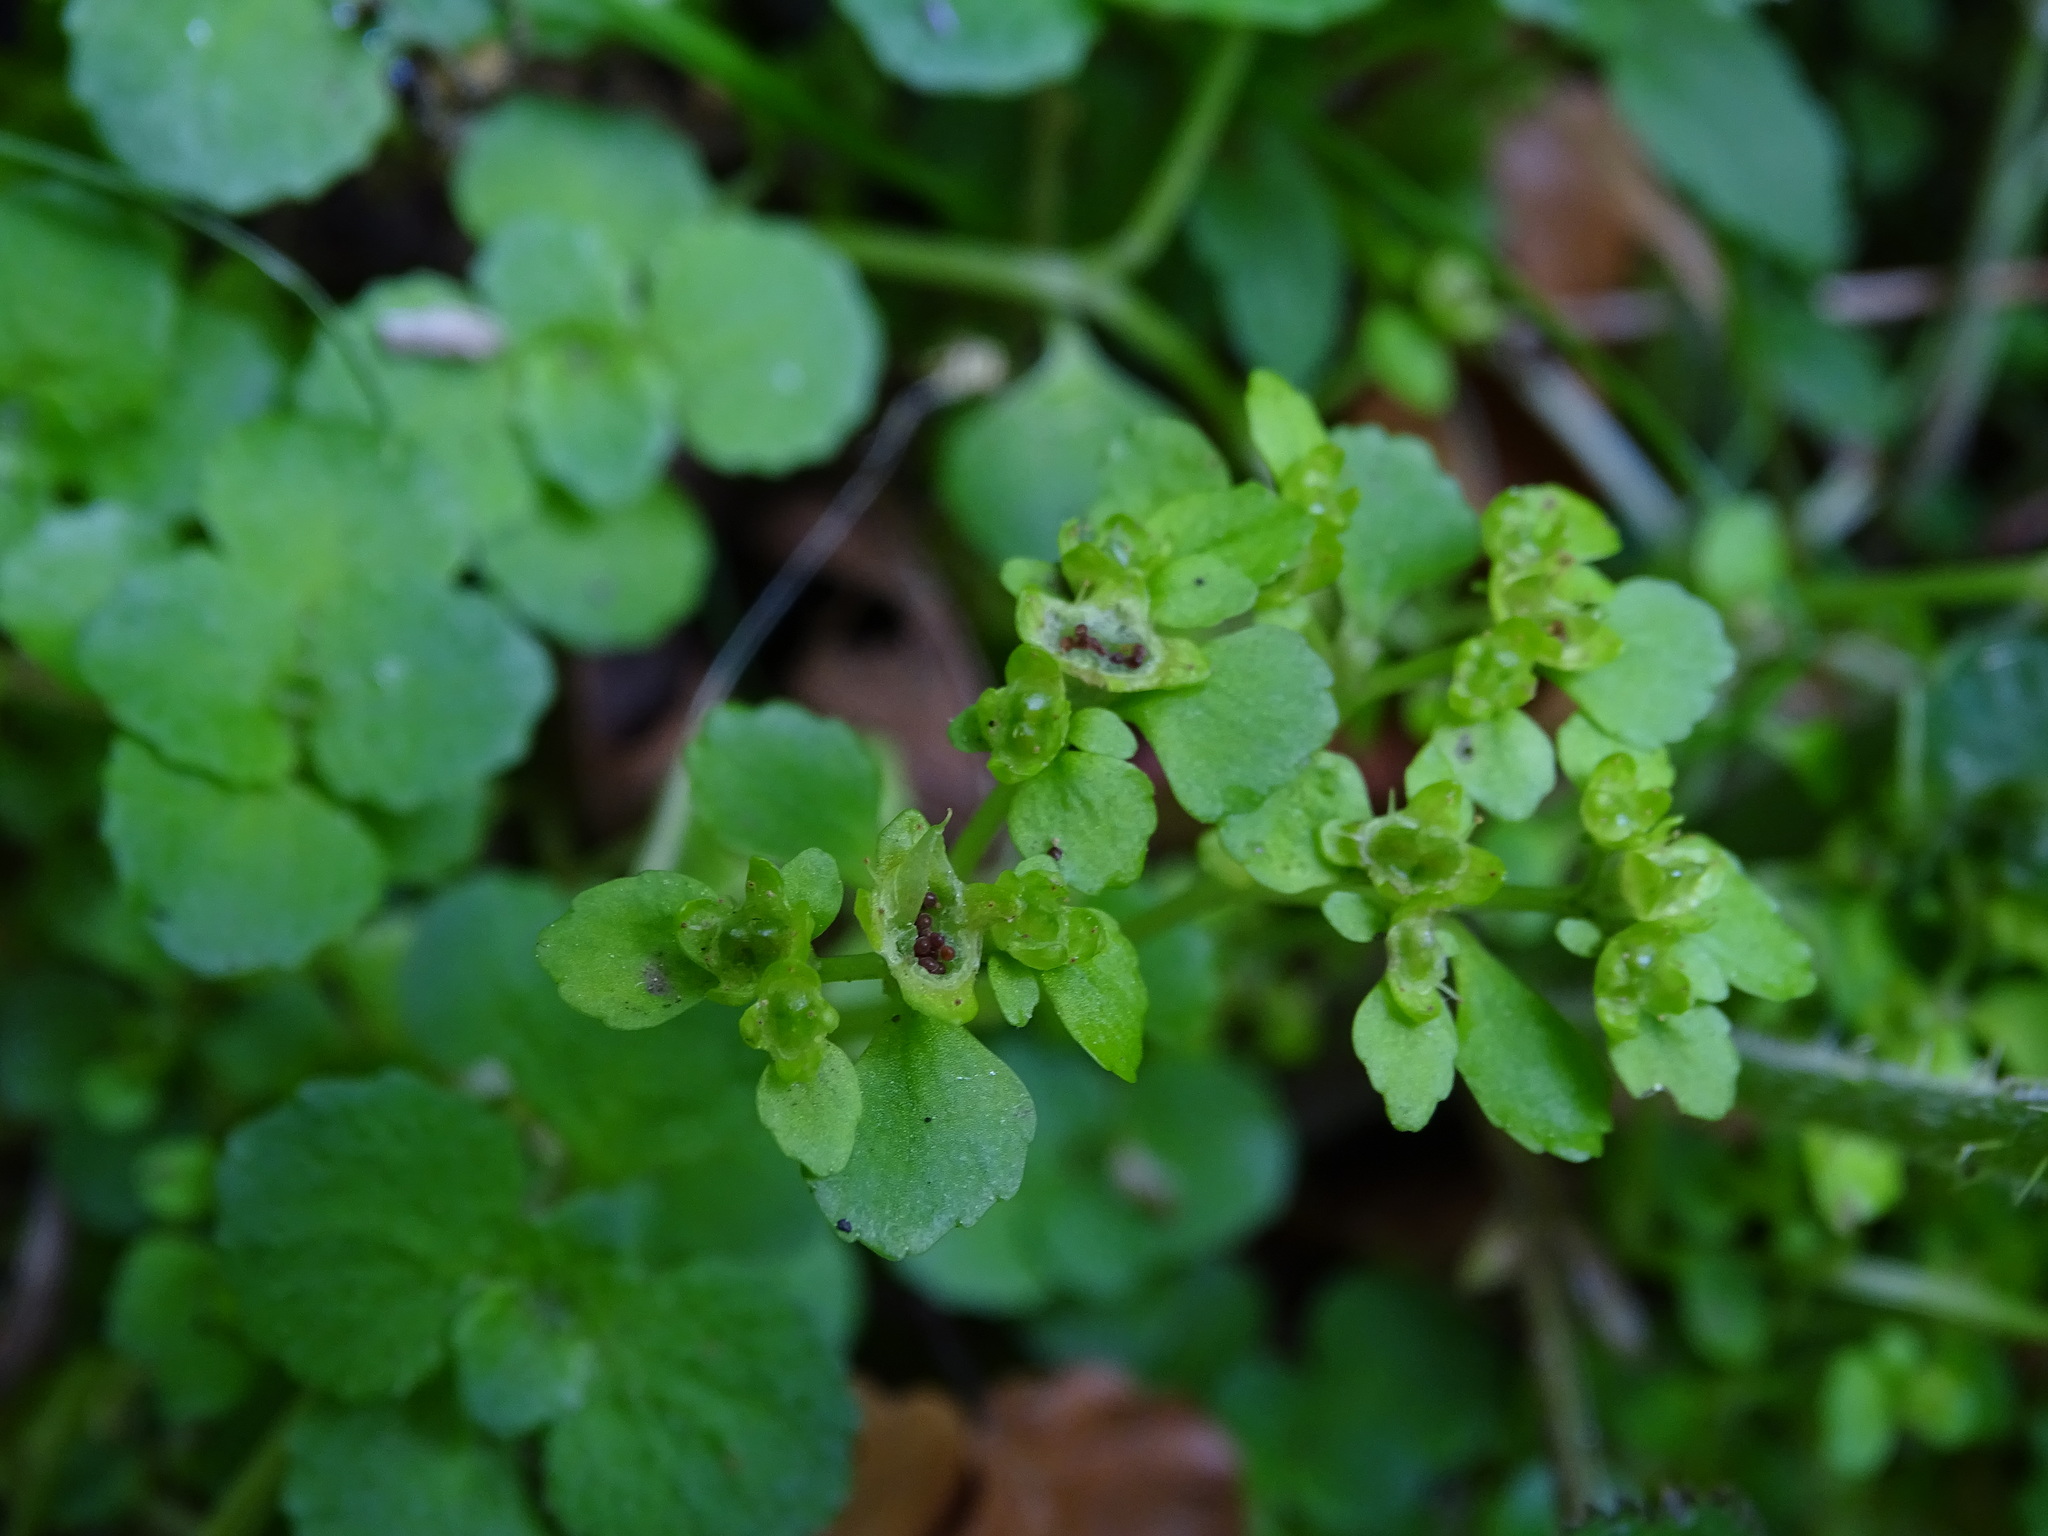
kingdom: Plantae
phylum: Tracheophyta
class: Magnoliopsida
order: Saxifragales
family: Saxifragaceae
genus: Chrysosplenium
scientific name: Chrysosplenium oppositifolium
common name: Opposite-leaved golden-saxifrage
